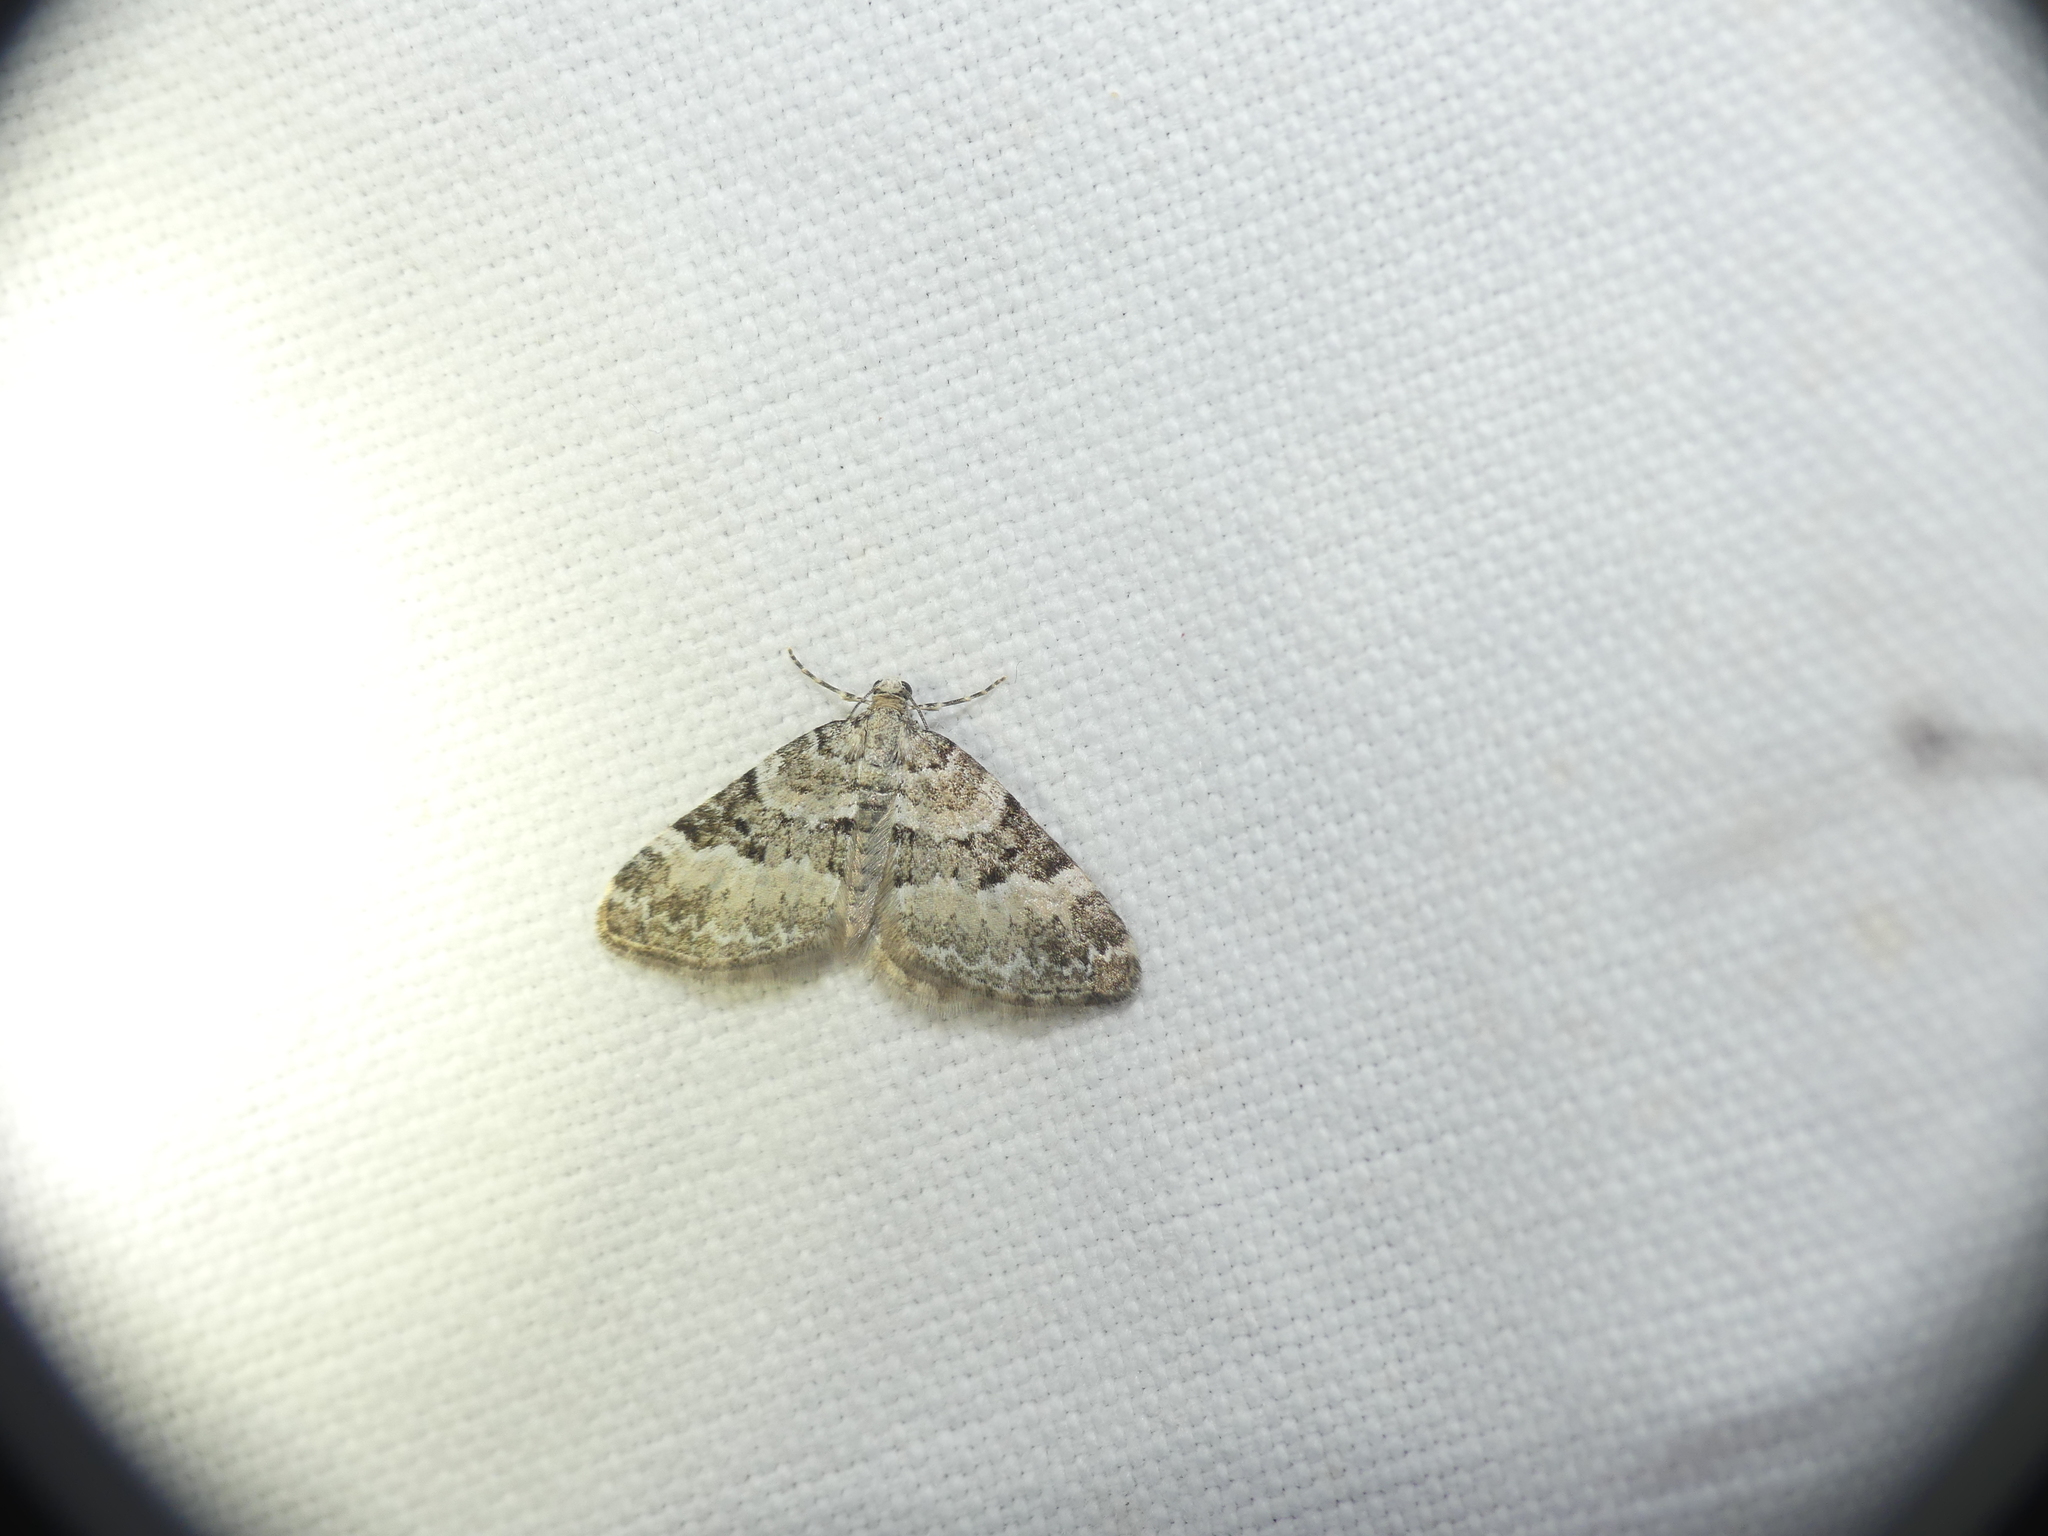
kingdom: Animalia
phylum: Arthropoda
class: Insecta
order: Lepidoptera
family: Geometridae
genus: Perizoma
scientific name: Perizoma minorata
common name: Heath rivulet
